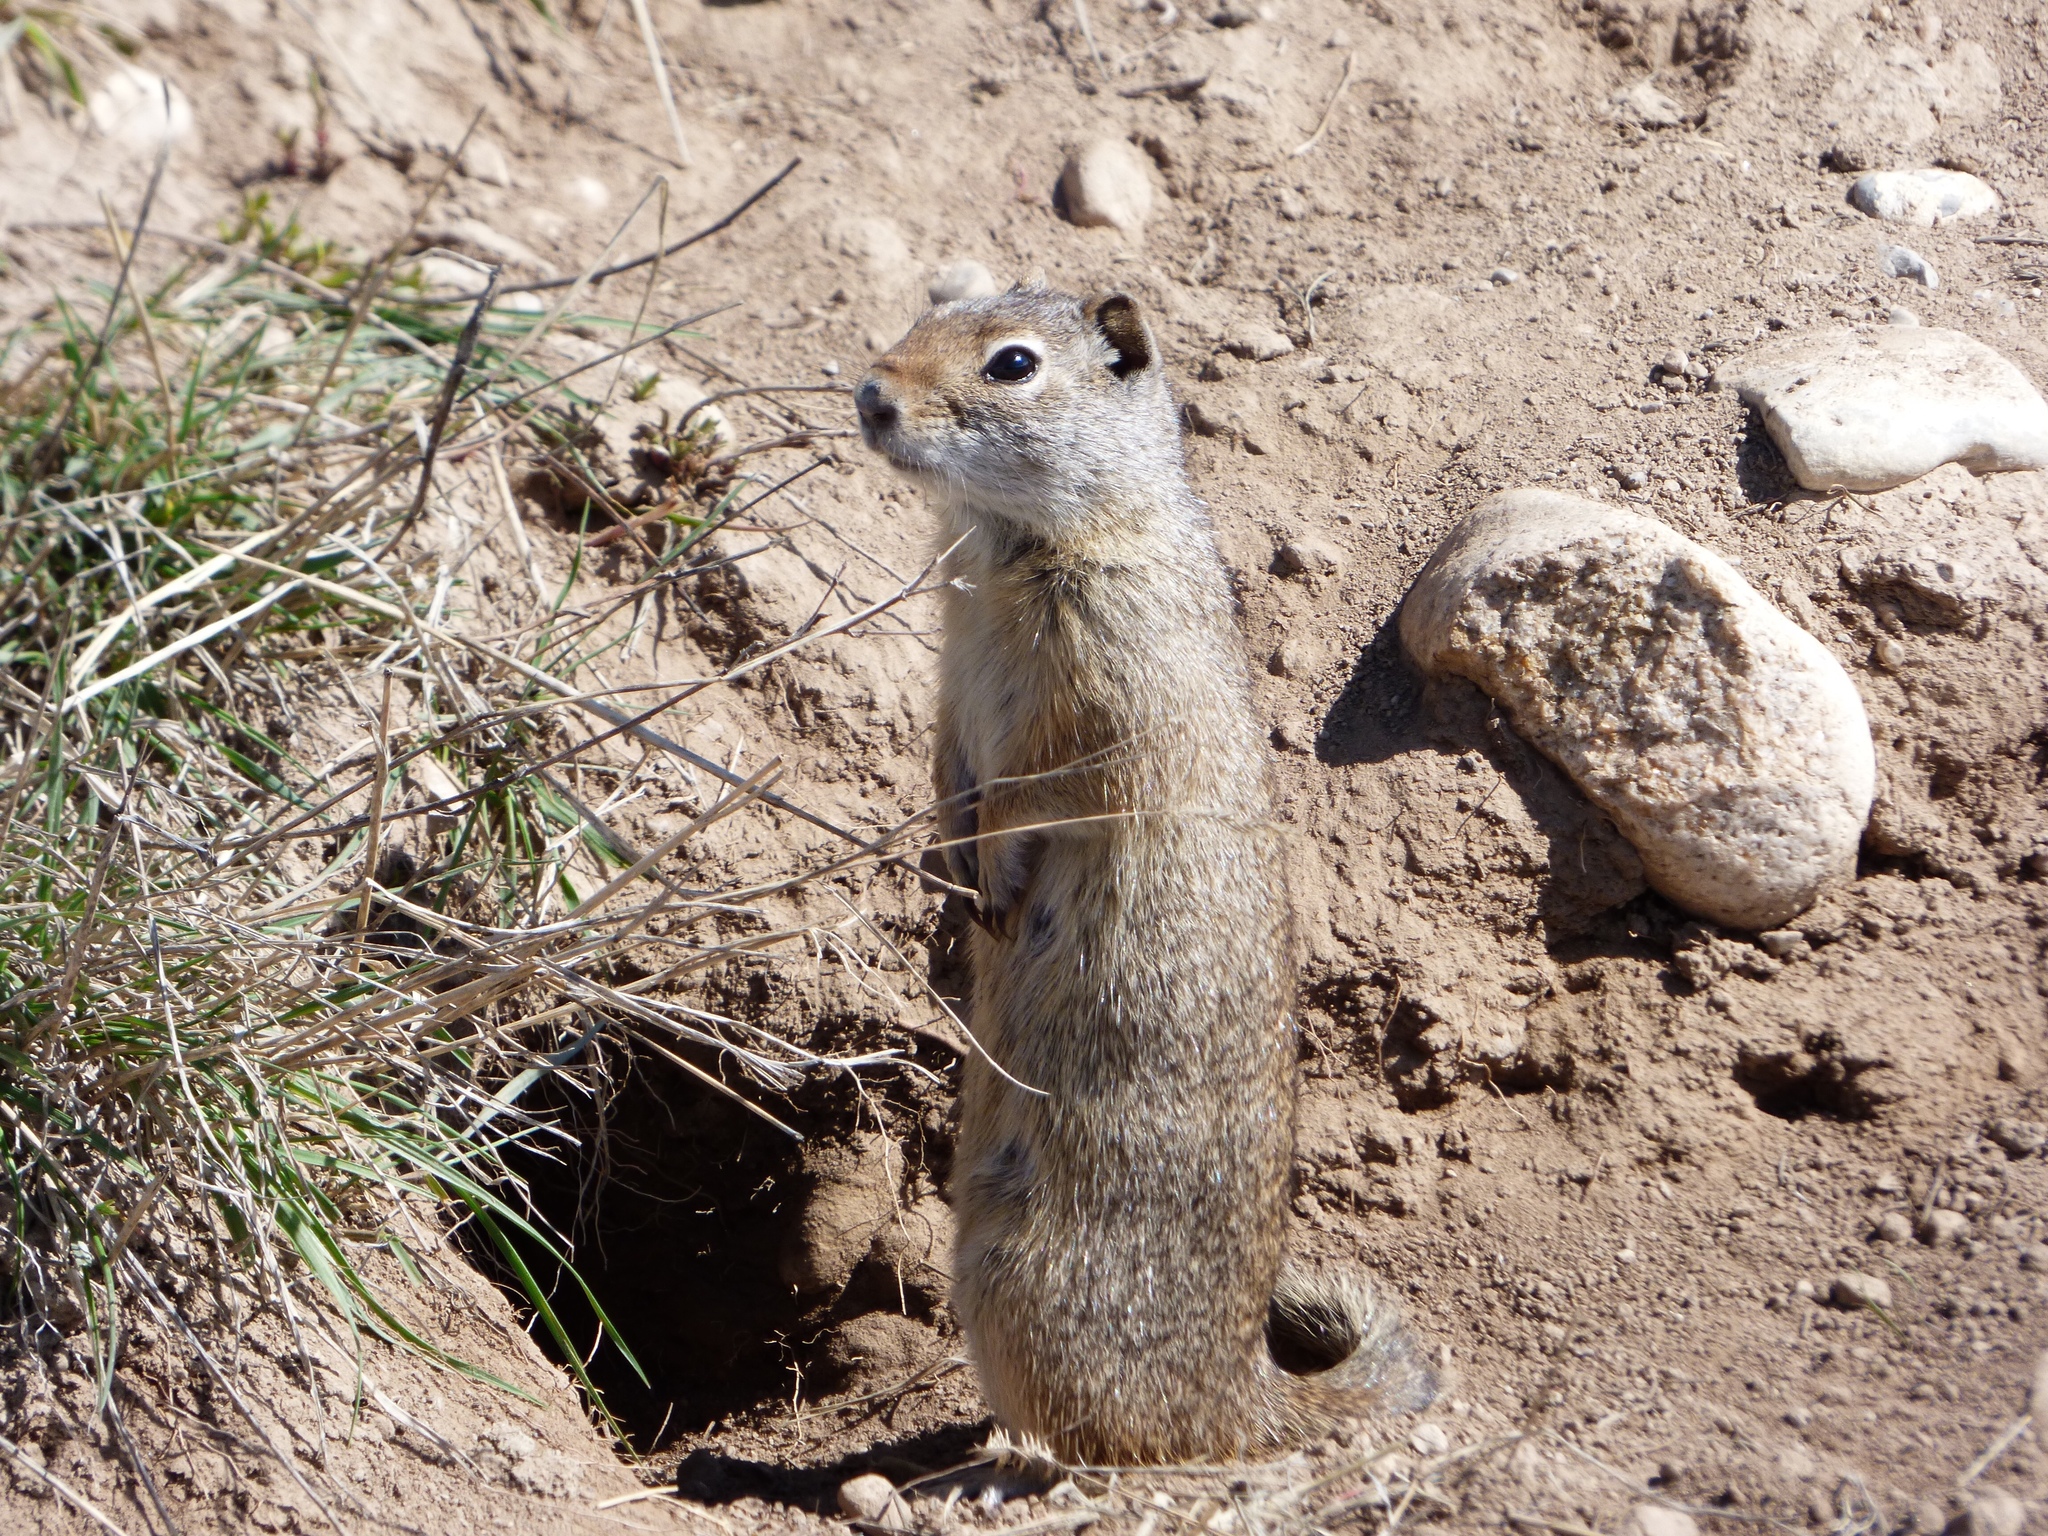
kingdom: Animalia
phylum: Chordata
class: Mammalia
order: Rodentia
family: Sciuridae
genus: Urocitellus
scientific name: Urocitellus armatus
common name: Uinta ground squirrel
